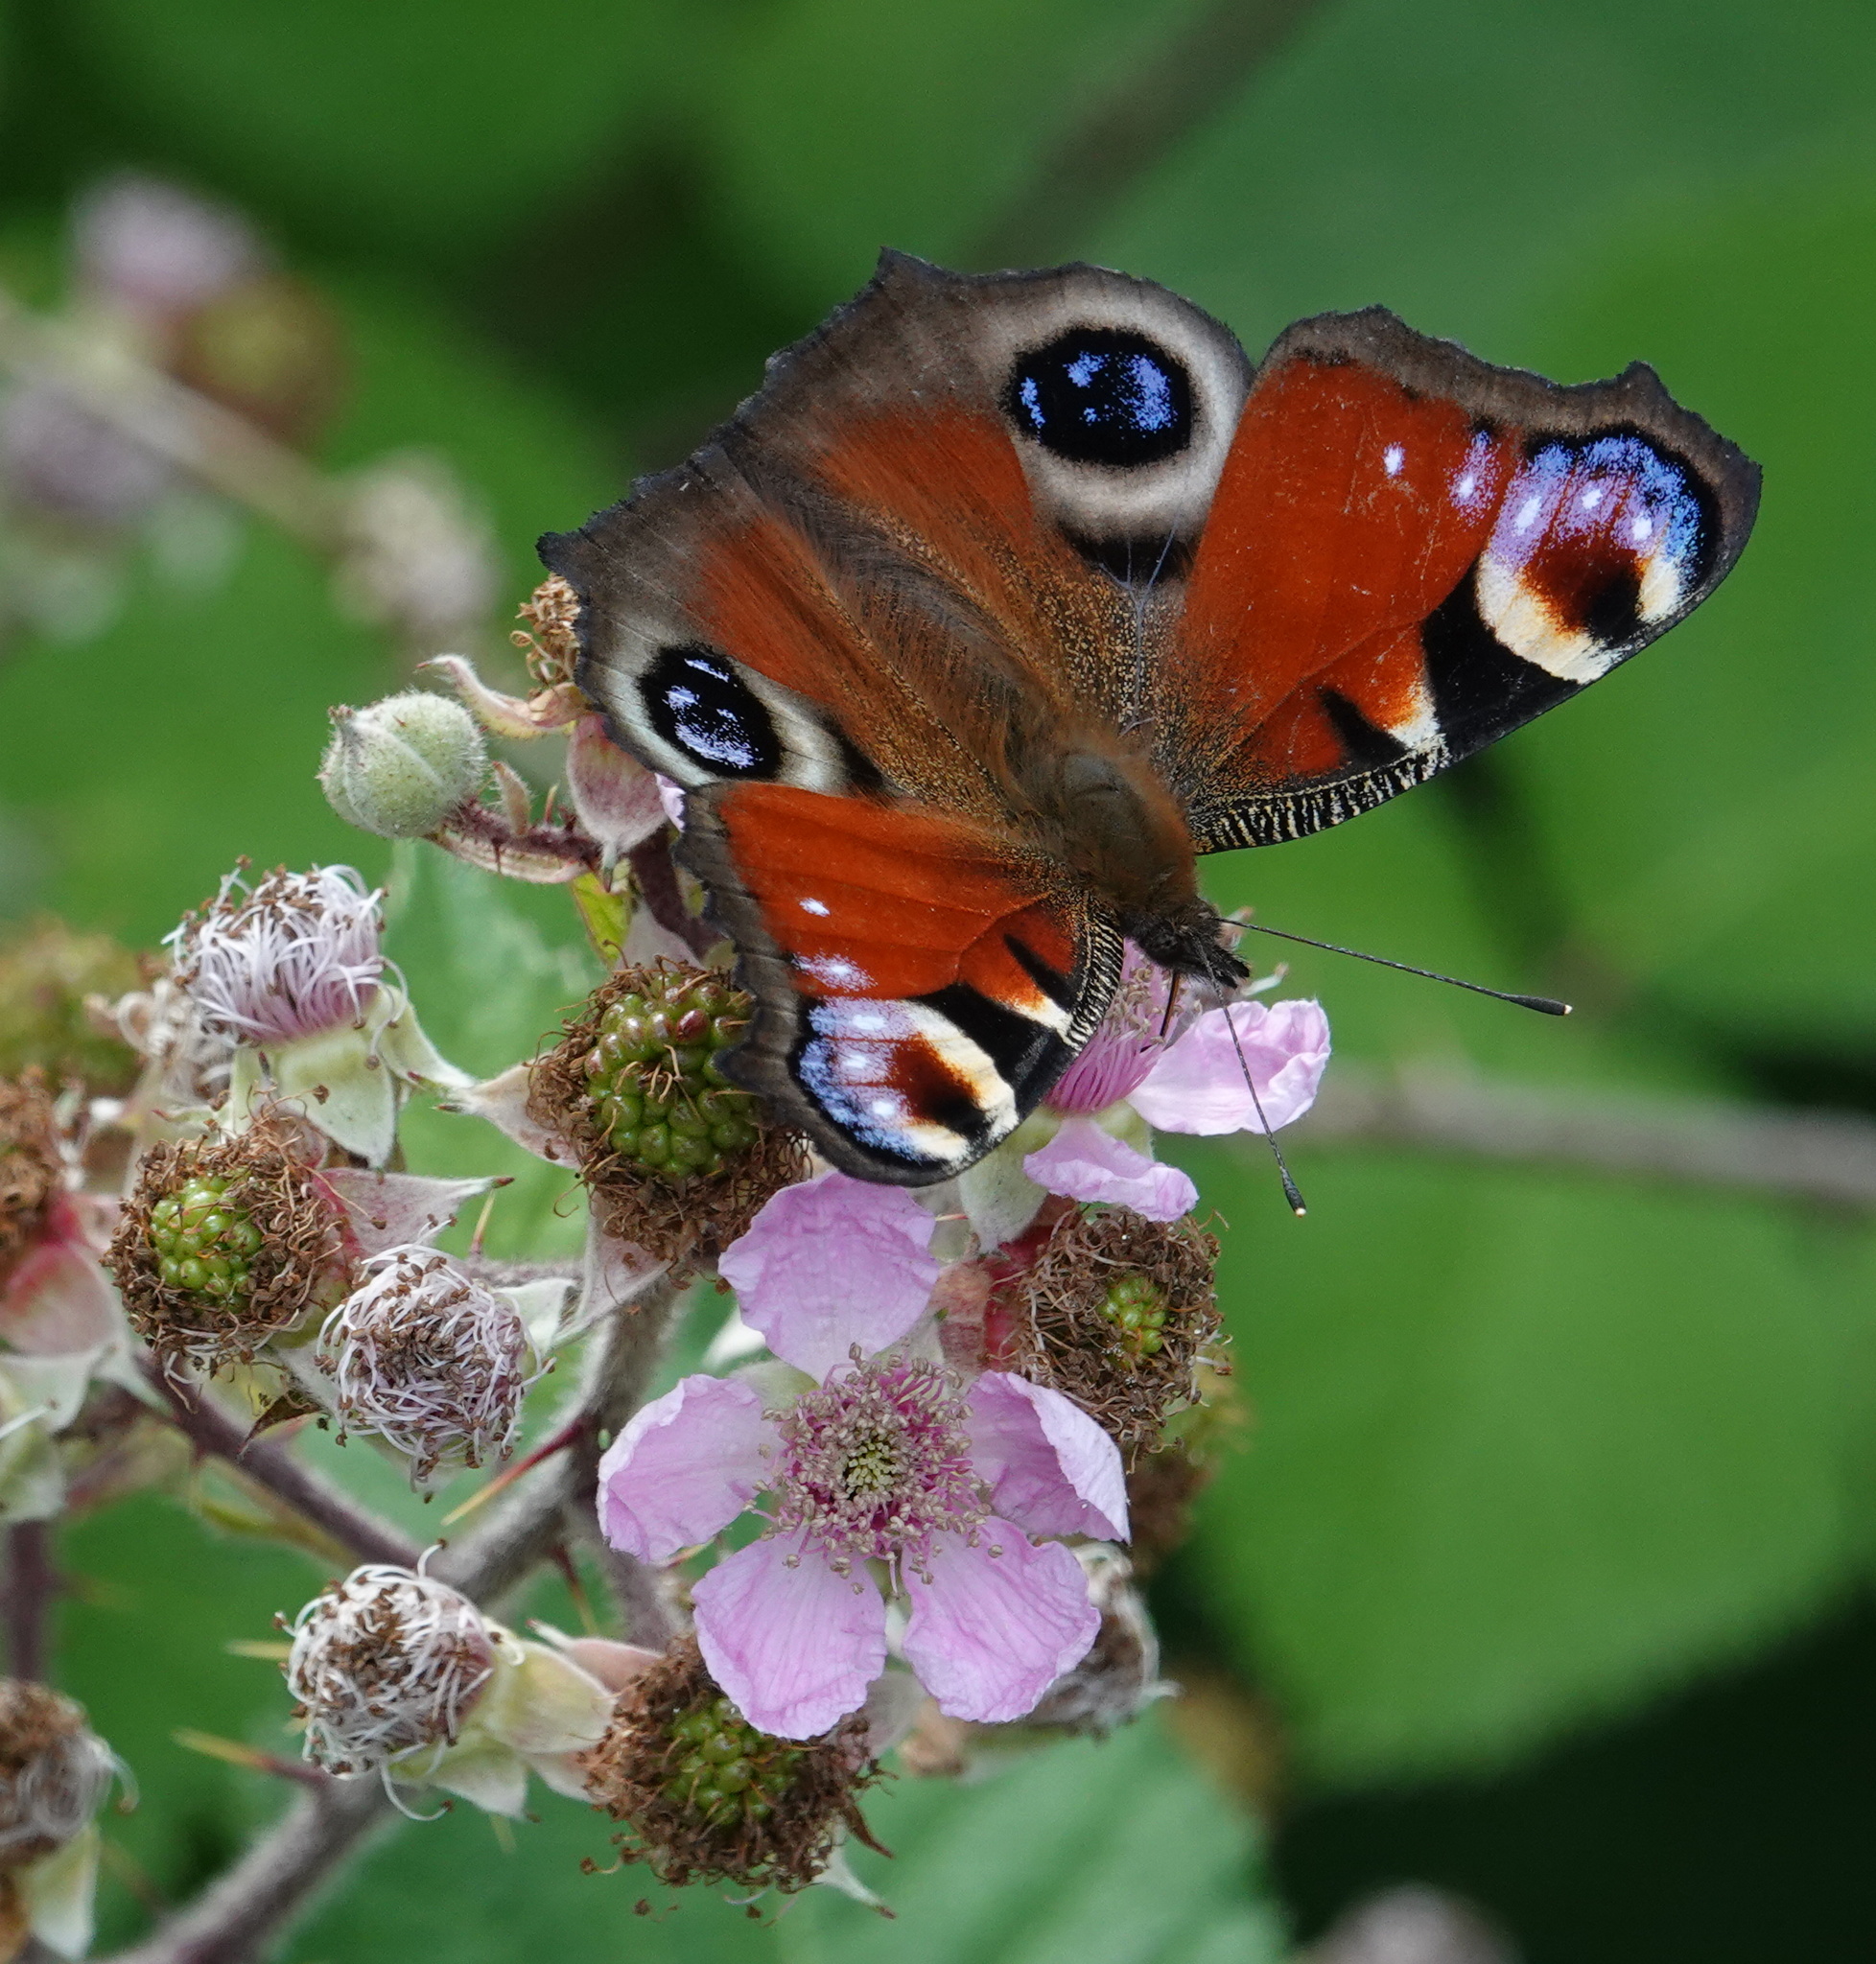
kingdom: Animalia
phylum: Arthropoda
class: Insecta
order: Lepidoptera
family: Nymphalidae
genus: Aglais
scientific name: Aglais io
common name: Peacock
